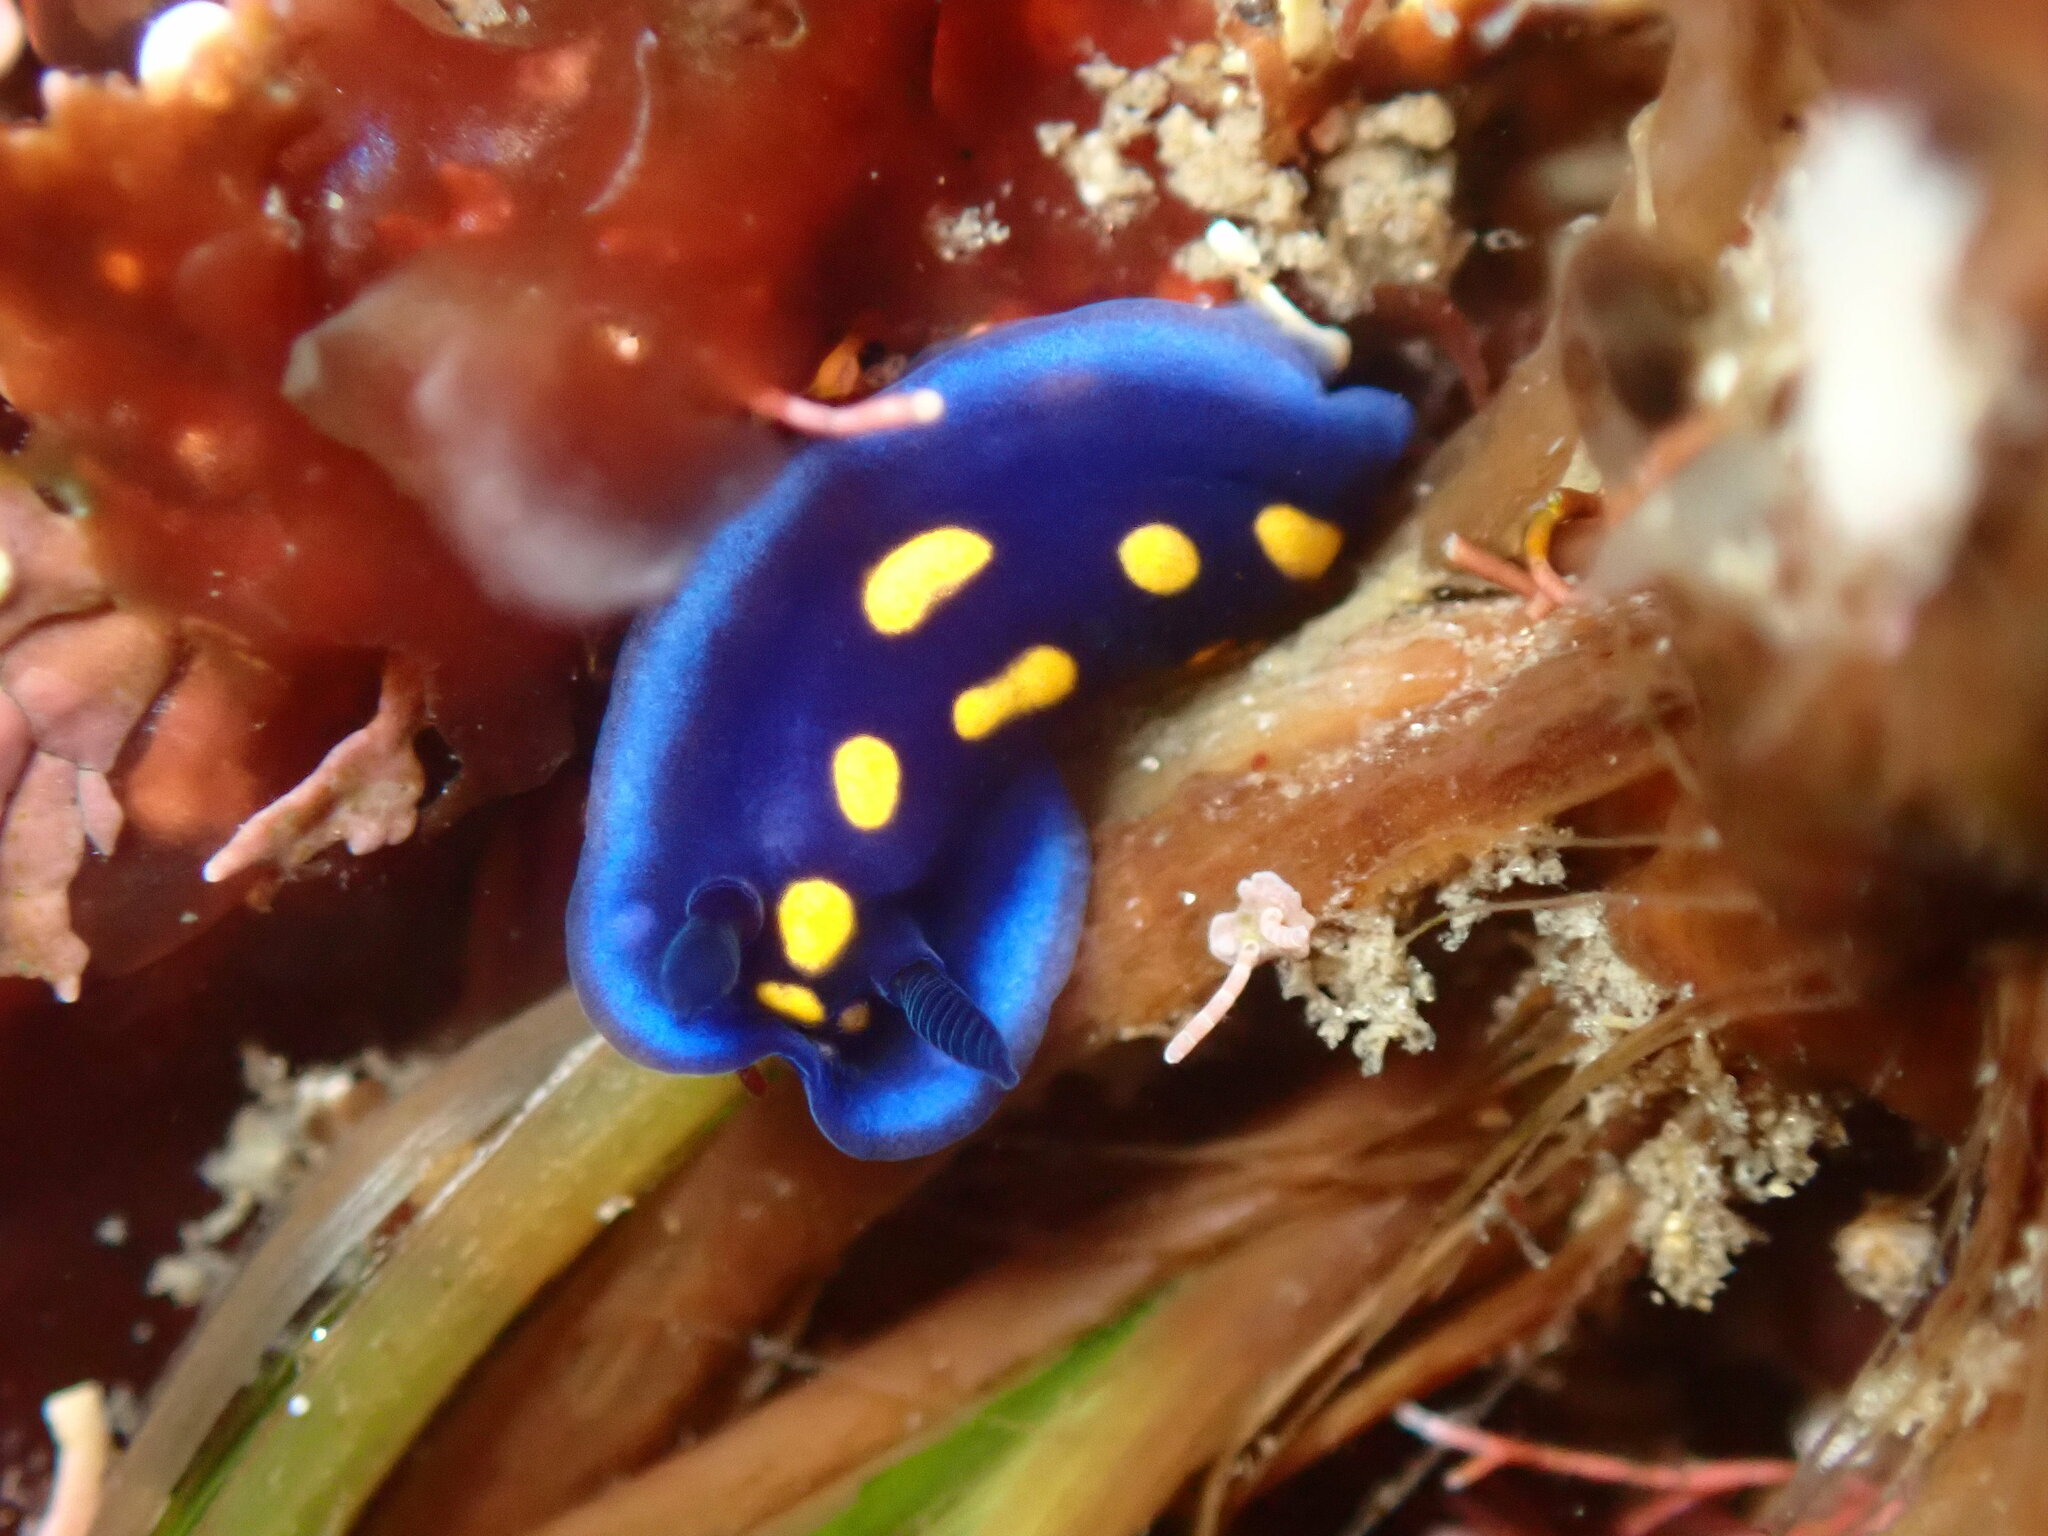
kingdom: Animalia
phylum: Mollusca
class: Gastropoda
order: Nudibranchia
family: Chromodorididae
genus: Felimare
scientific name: Felimare californiensis
